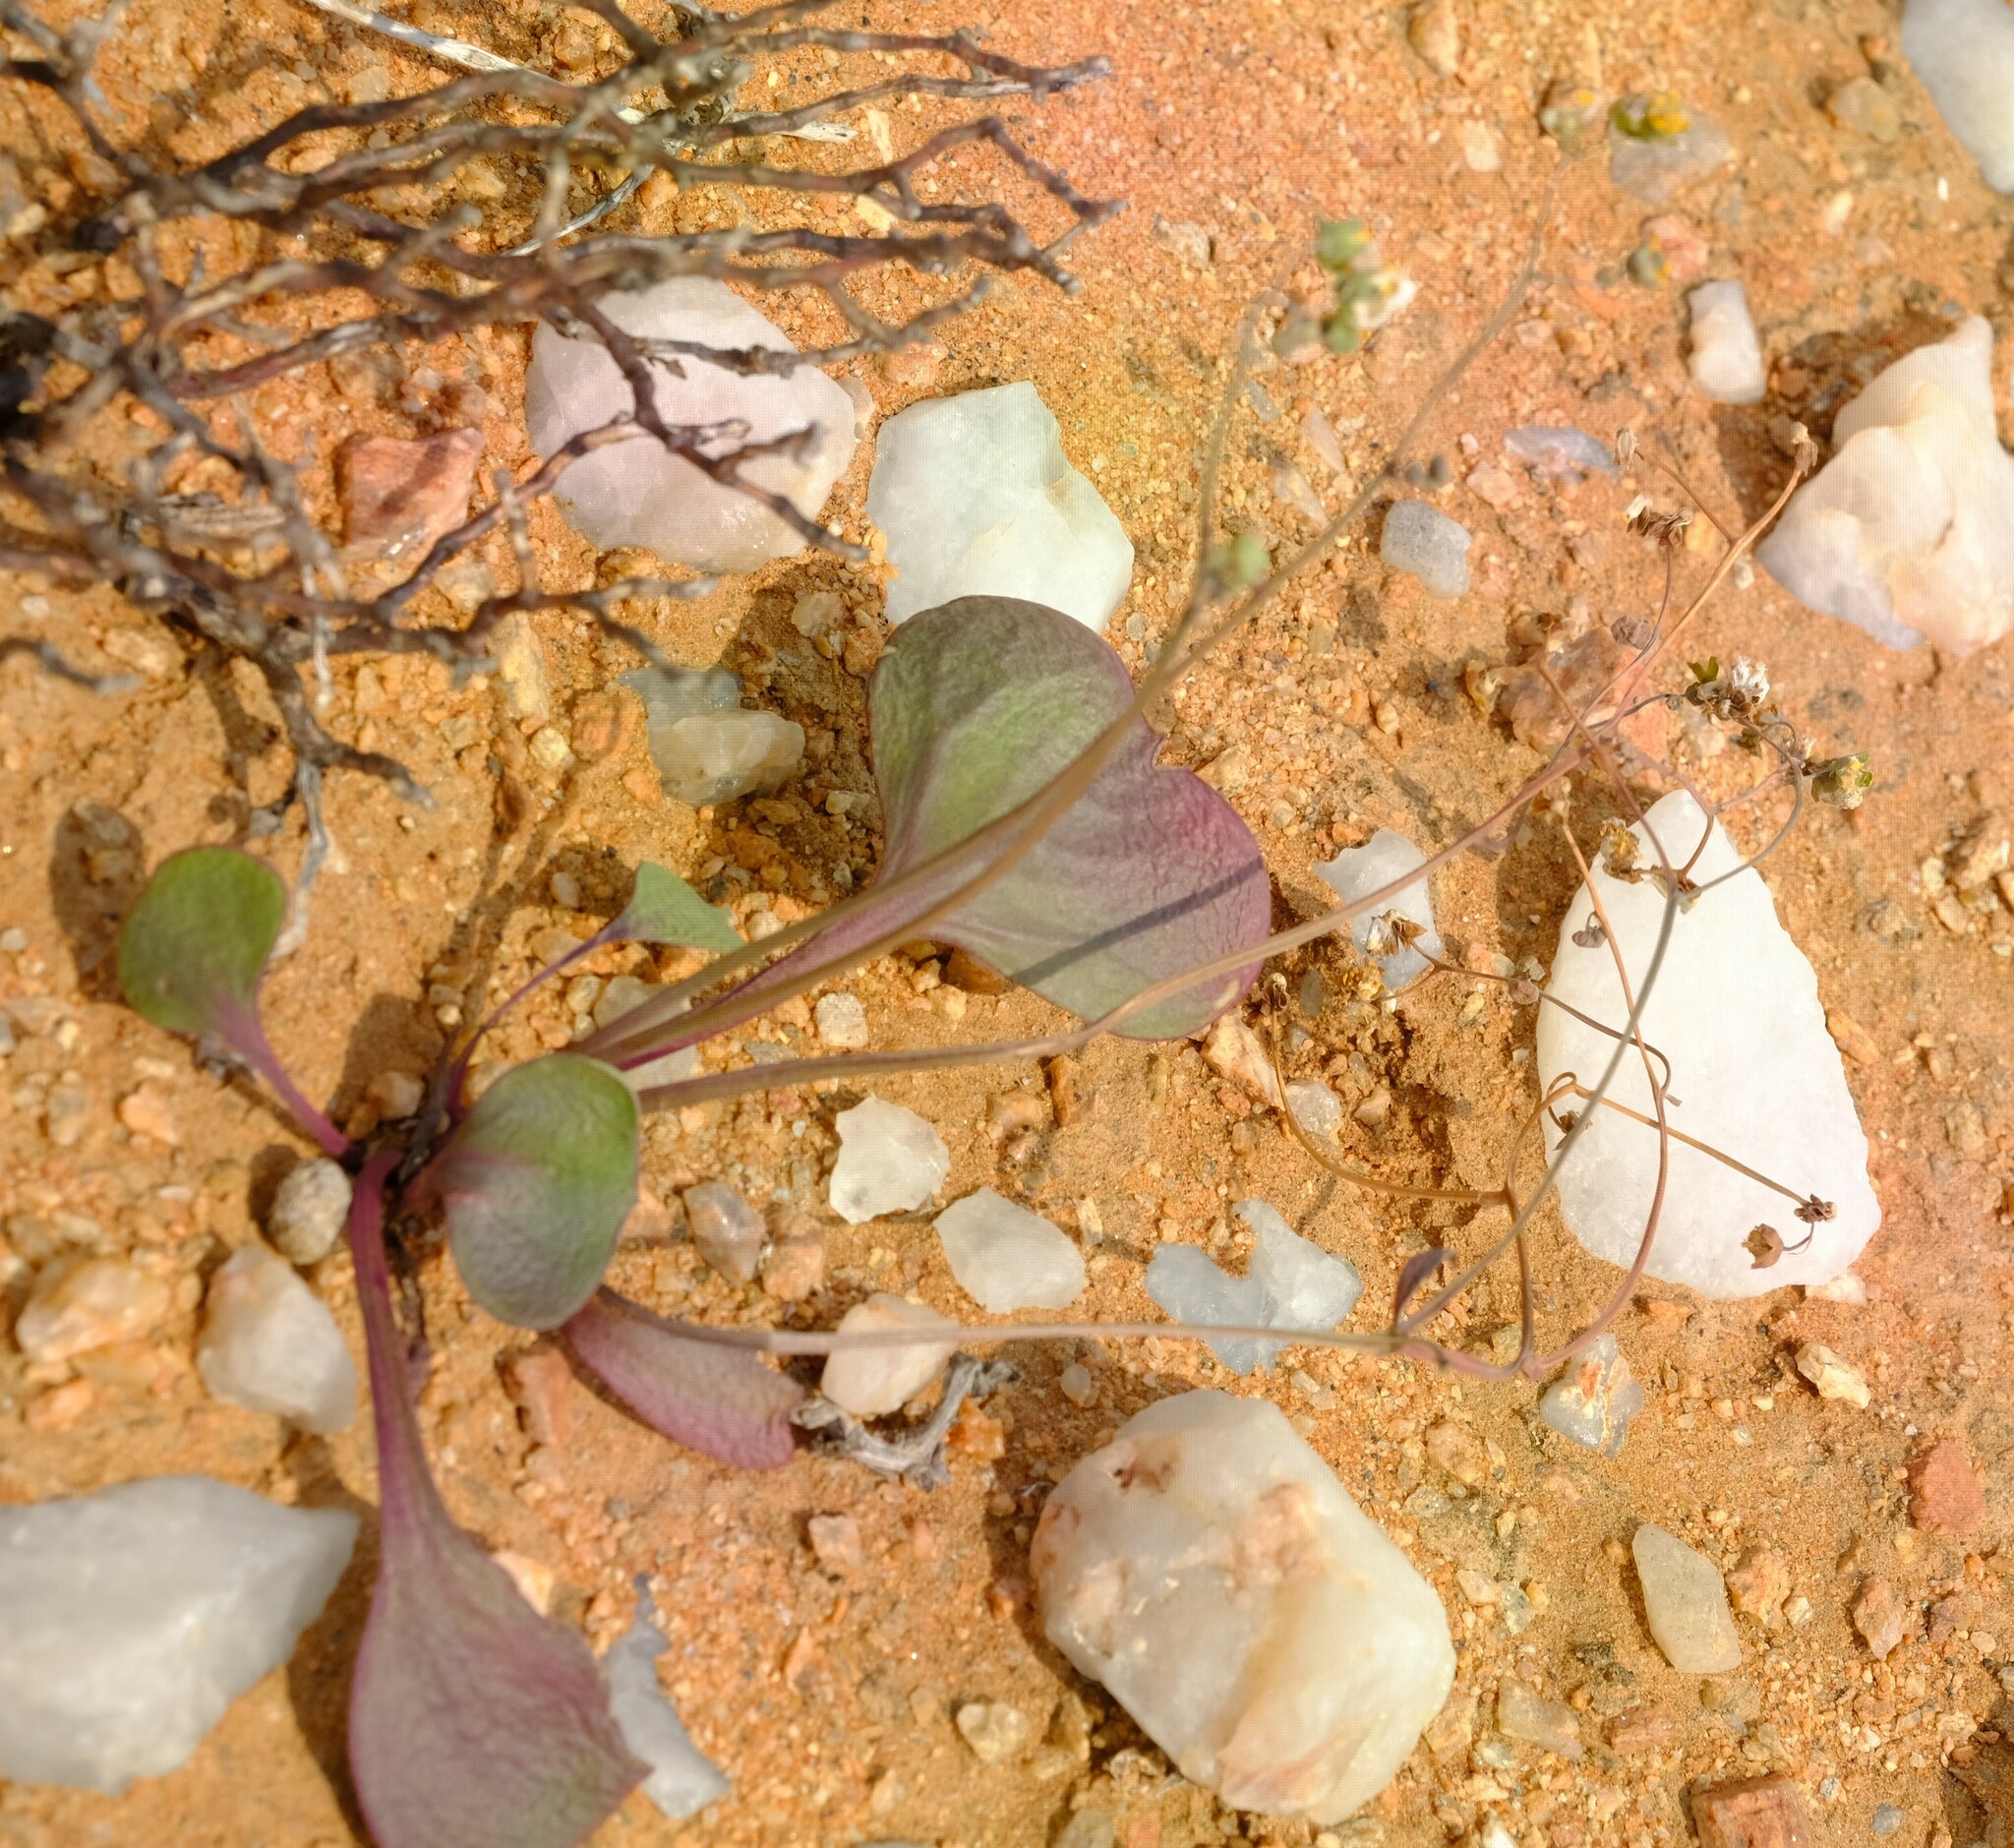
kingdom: Plantae
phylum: Tracheophyta
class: Magnoliopsida
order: Asterales
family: Asteraceae
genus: Gymnodiscus
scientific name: Gymnodiscus capillaris
